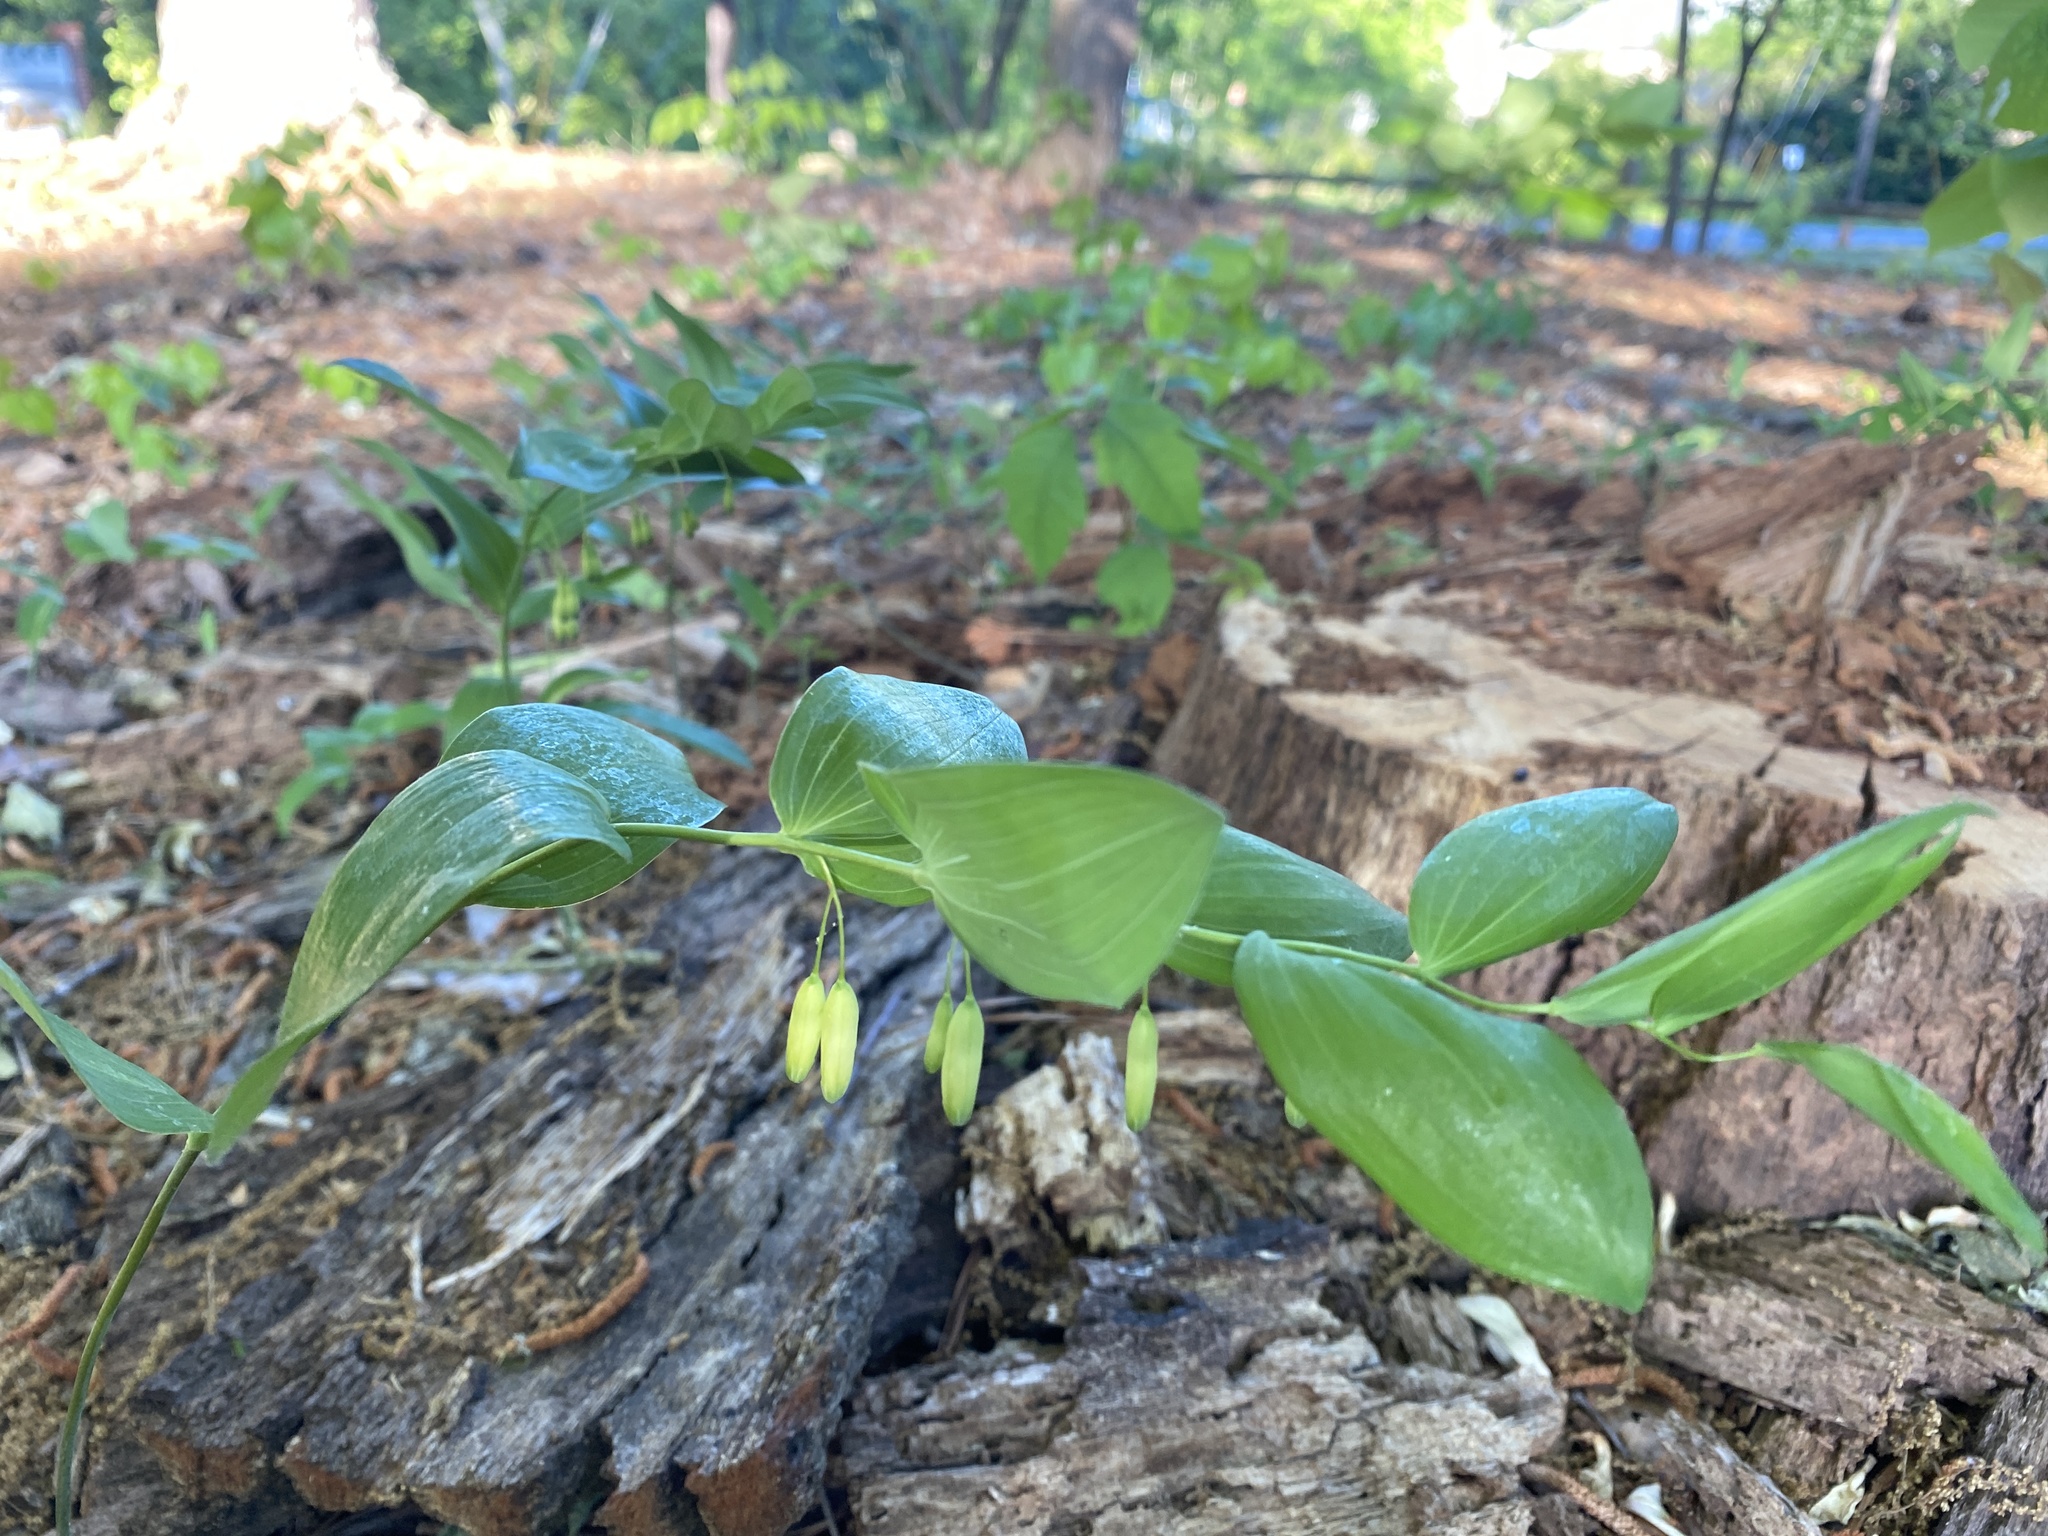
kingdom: Plantae
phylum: Tracheophyta
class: Liliopsida
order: Asparagales
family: Asparagaceae
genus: Polygonatum
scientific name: Polygonatum biflorum
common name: American solomon's-seal
